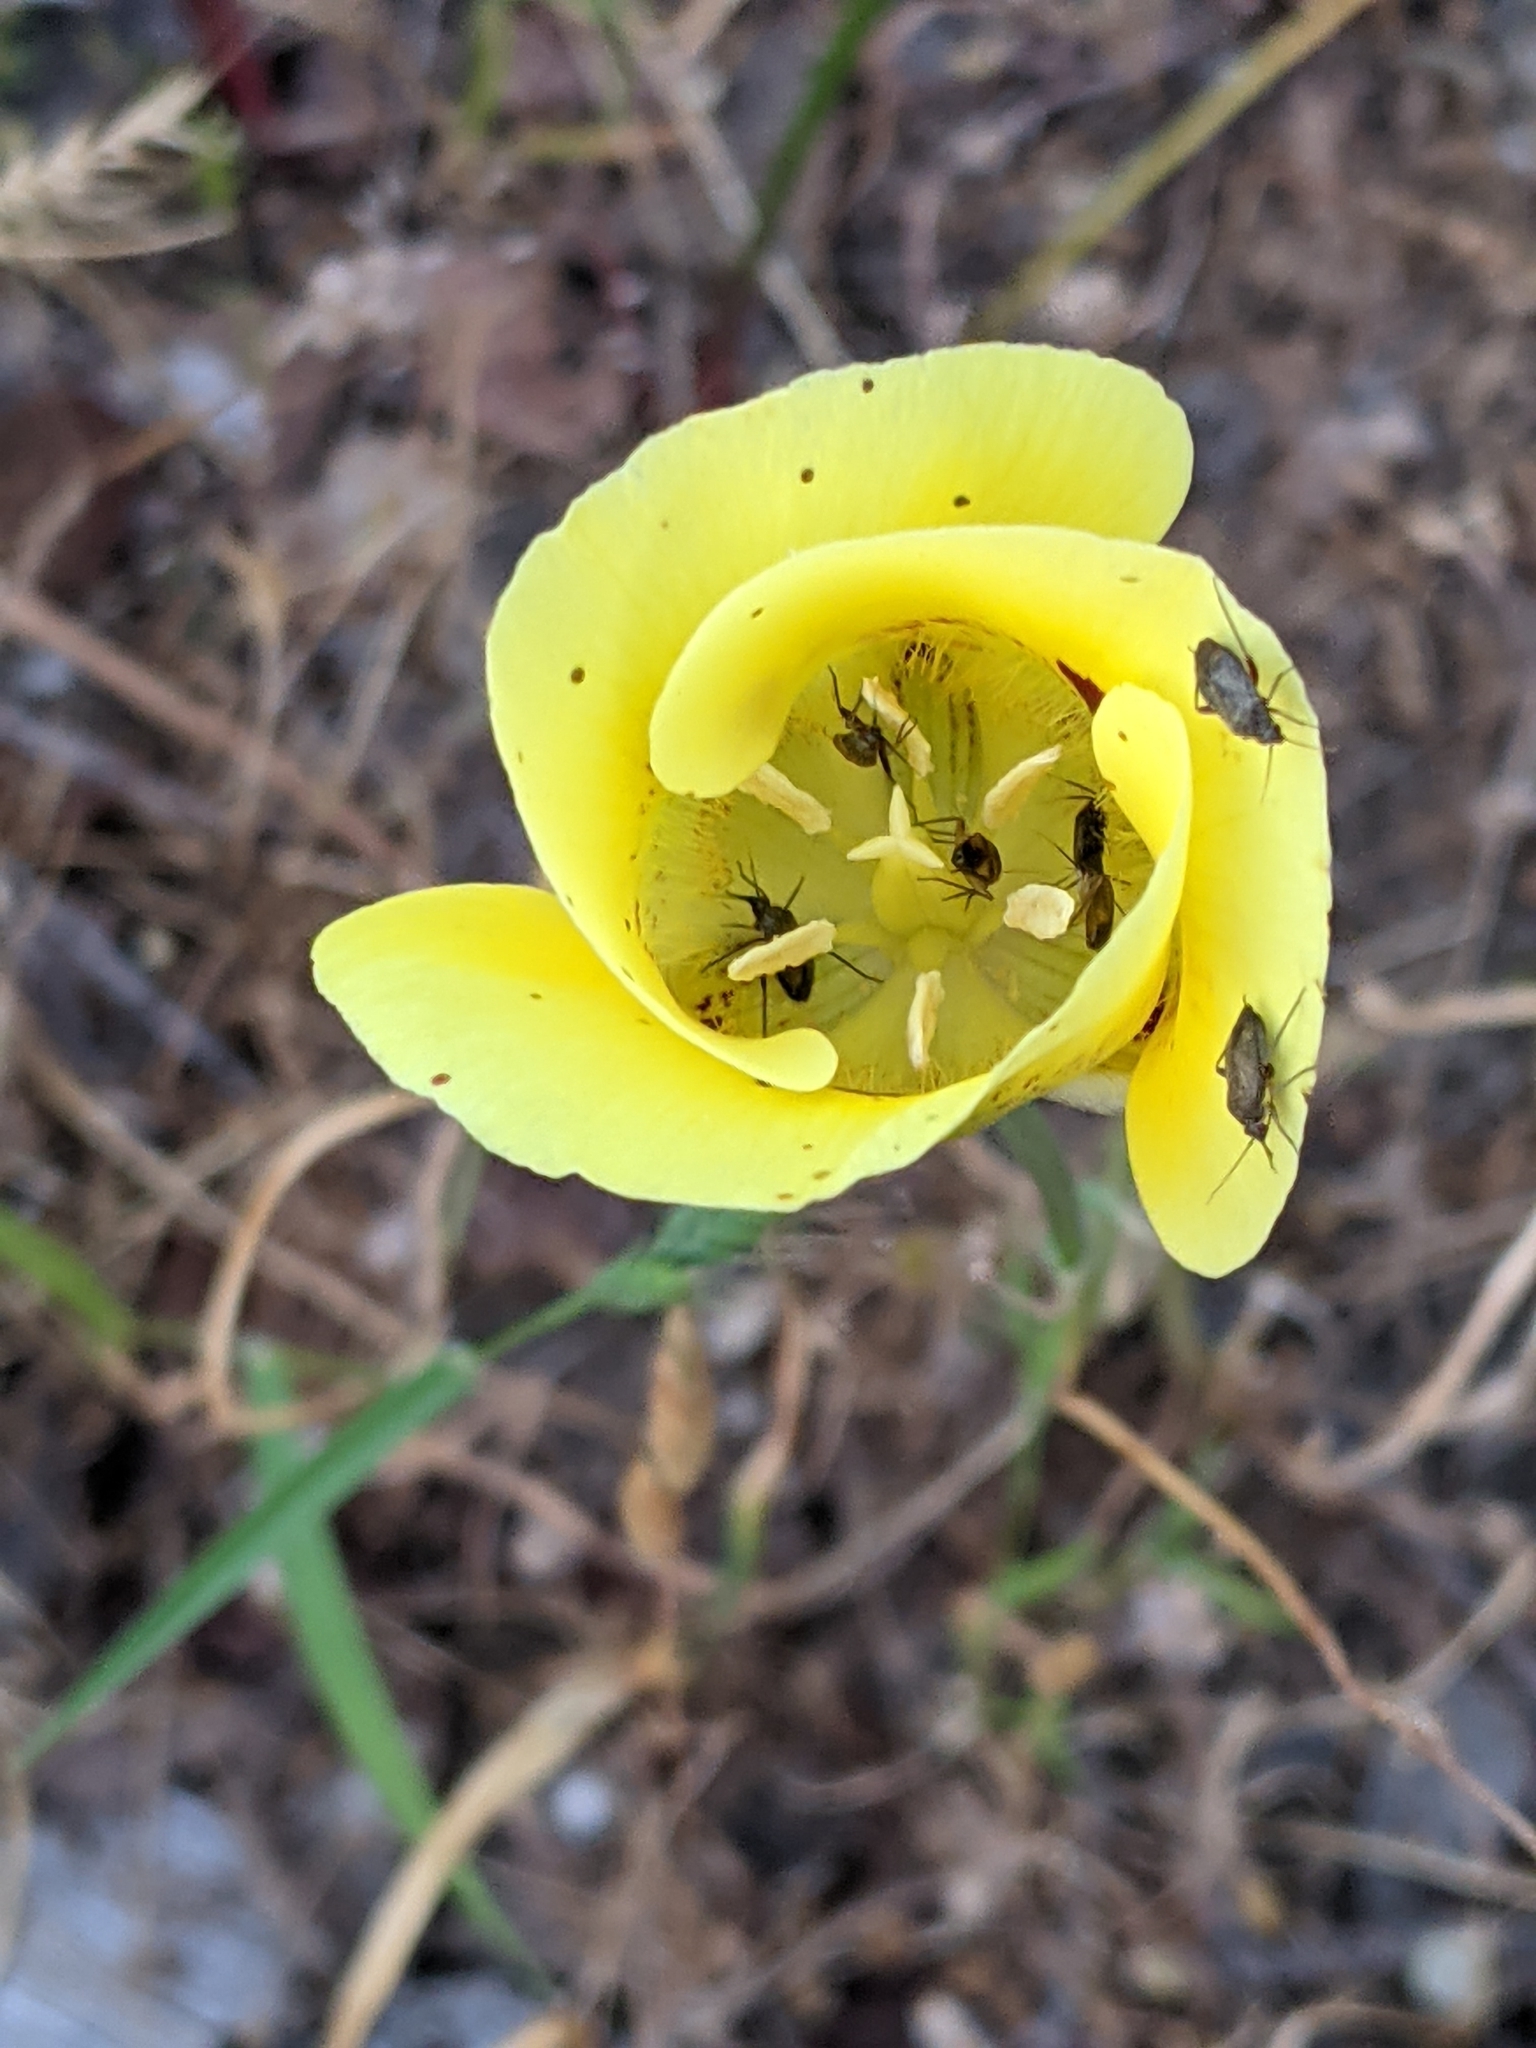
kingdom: Plantae
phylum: Tracheophyta
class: Liliopsida
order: Liliales
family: Liliaceae
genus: Calochortus
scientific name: Calochortus luteus
